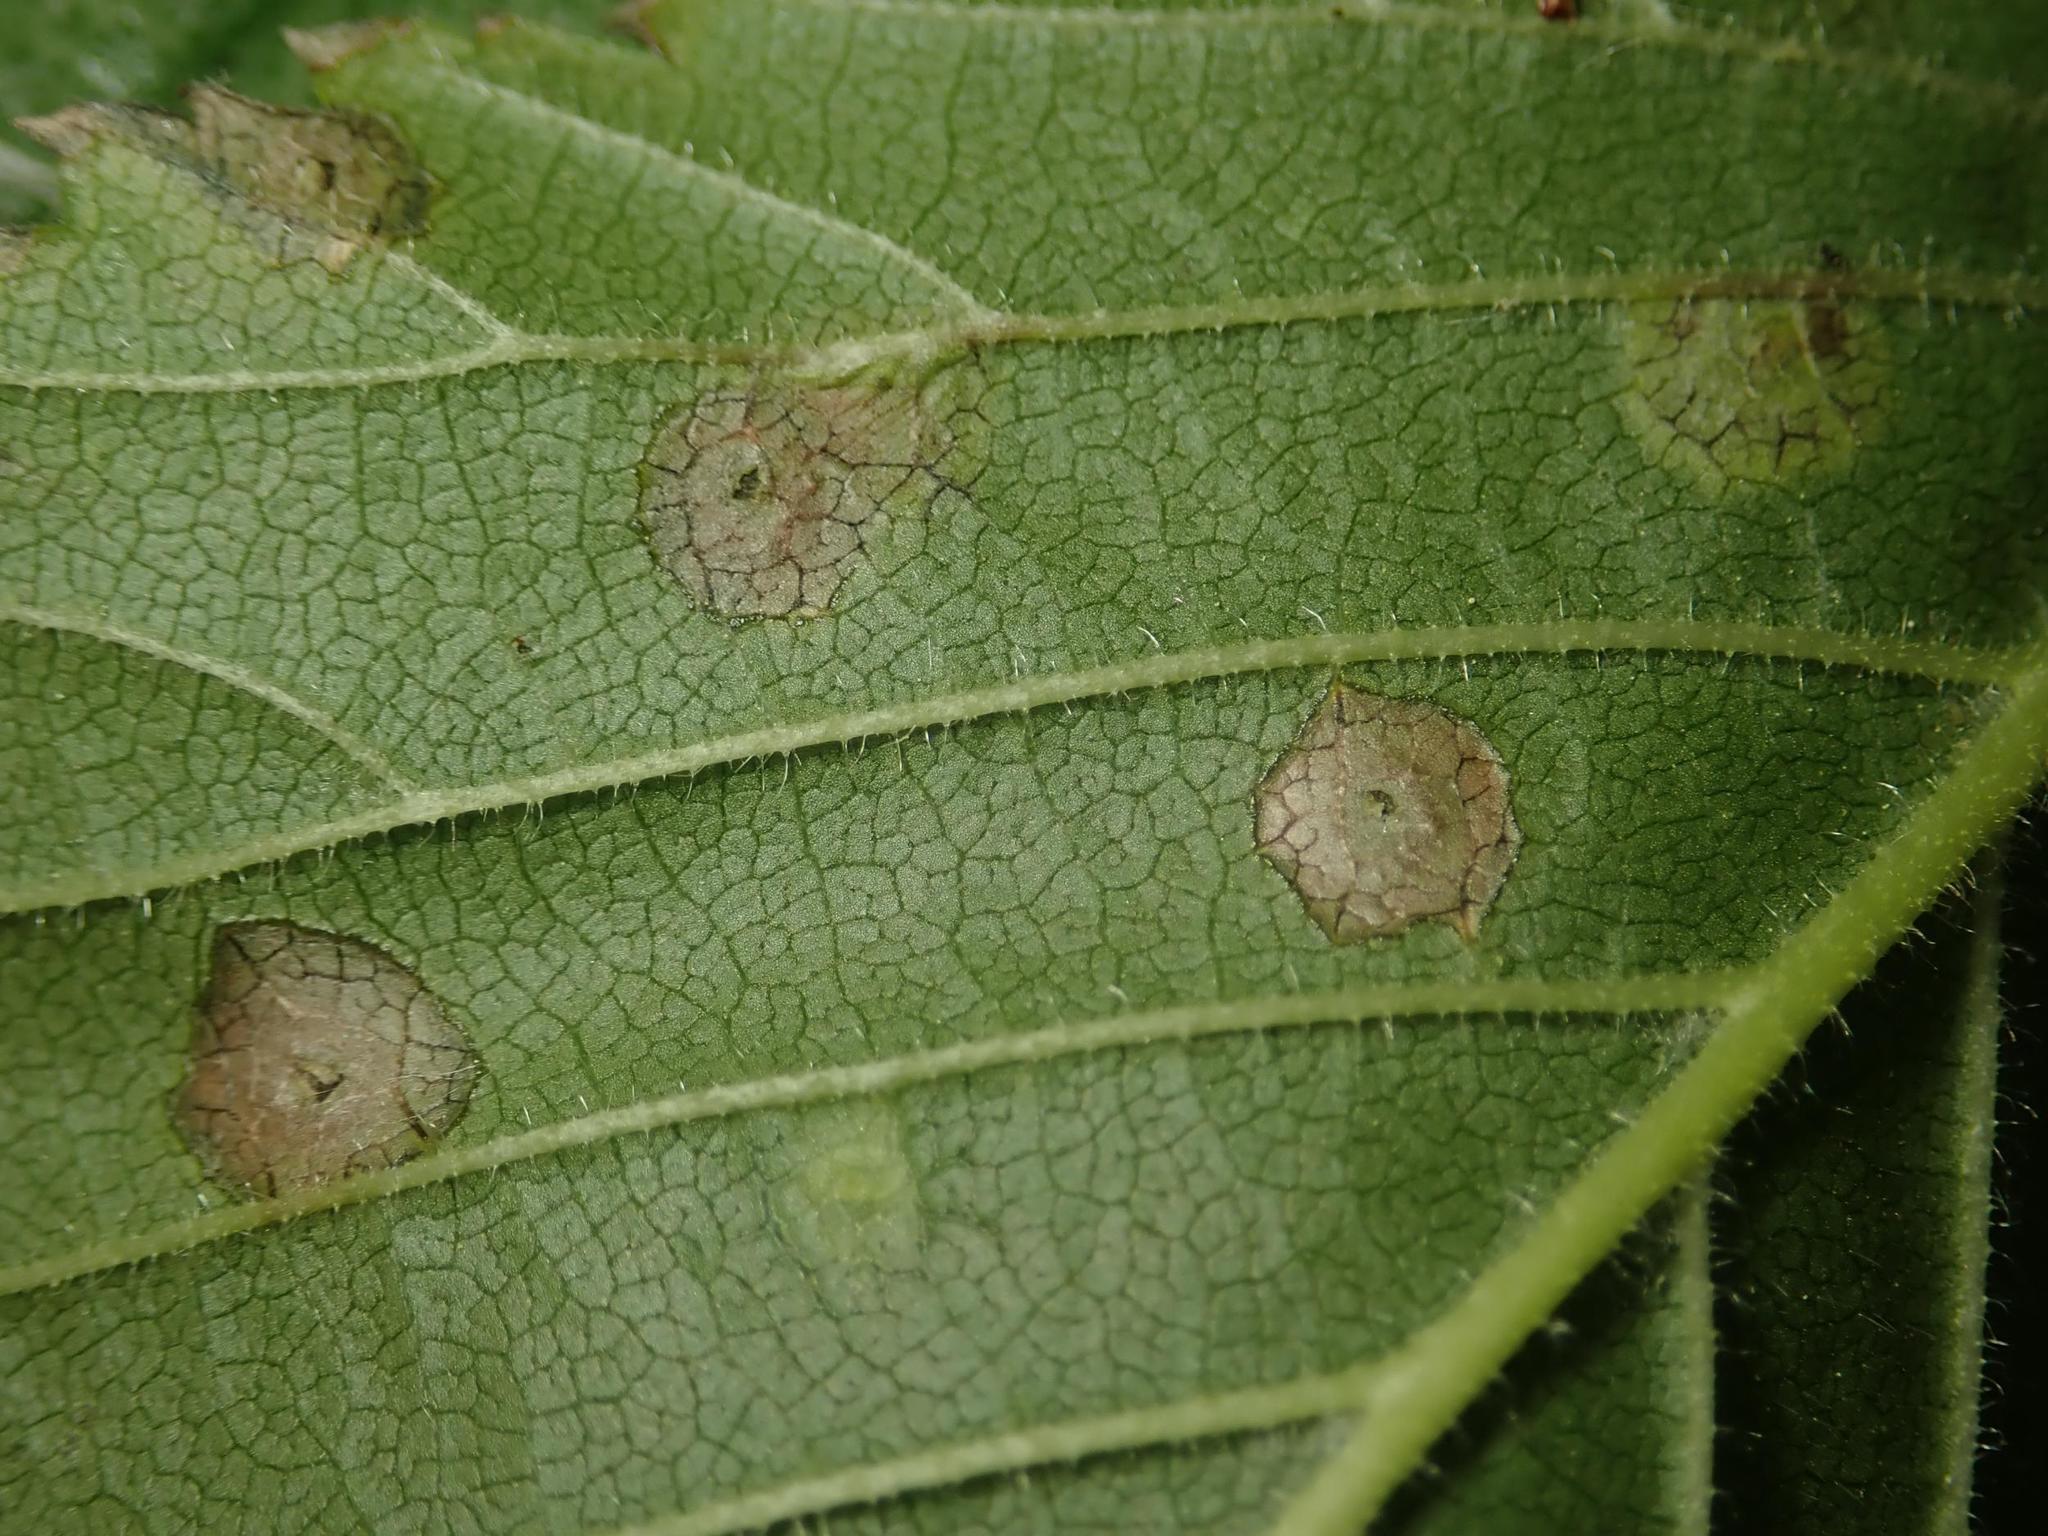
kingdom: Animalia
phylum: Arthropoda
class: Insecta
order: Diptera
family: Cecidomyiidae
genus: Physemocecis
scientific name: Physemocecis ulmi
